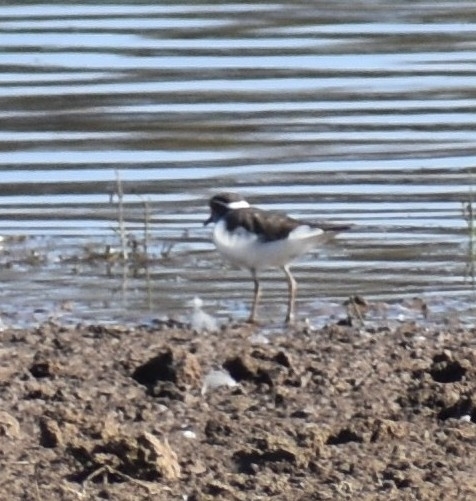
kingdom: Animalia
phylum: Chordata
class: Aves
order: Charadriiformes
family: Charadriidae
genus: Charadrius
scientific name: Charadrius tricollaris
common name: Three-banded plover
